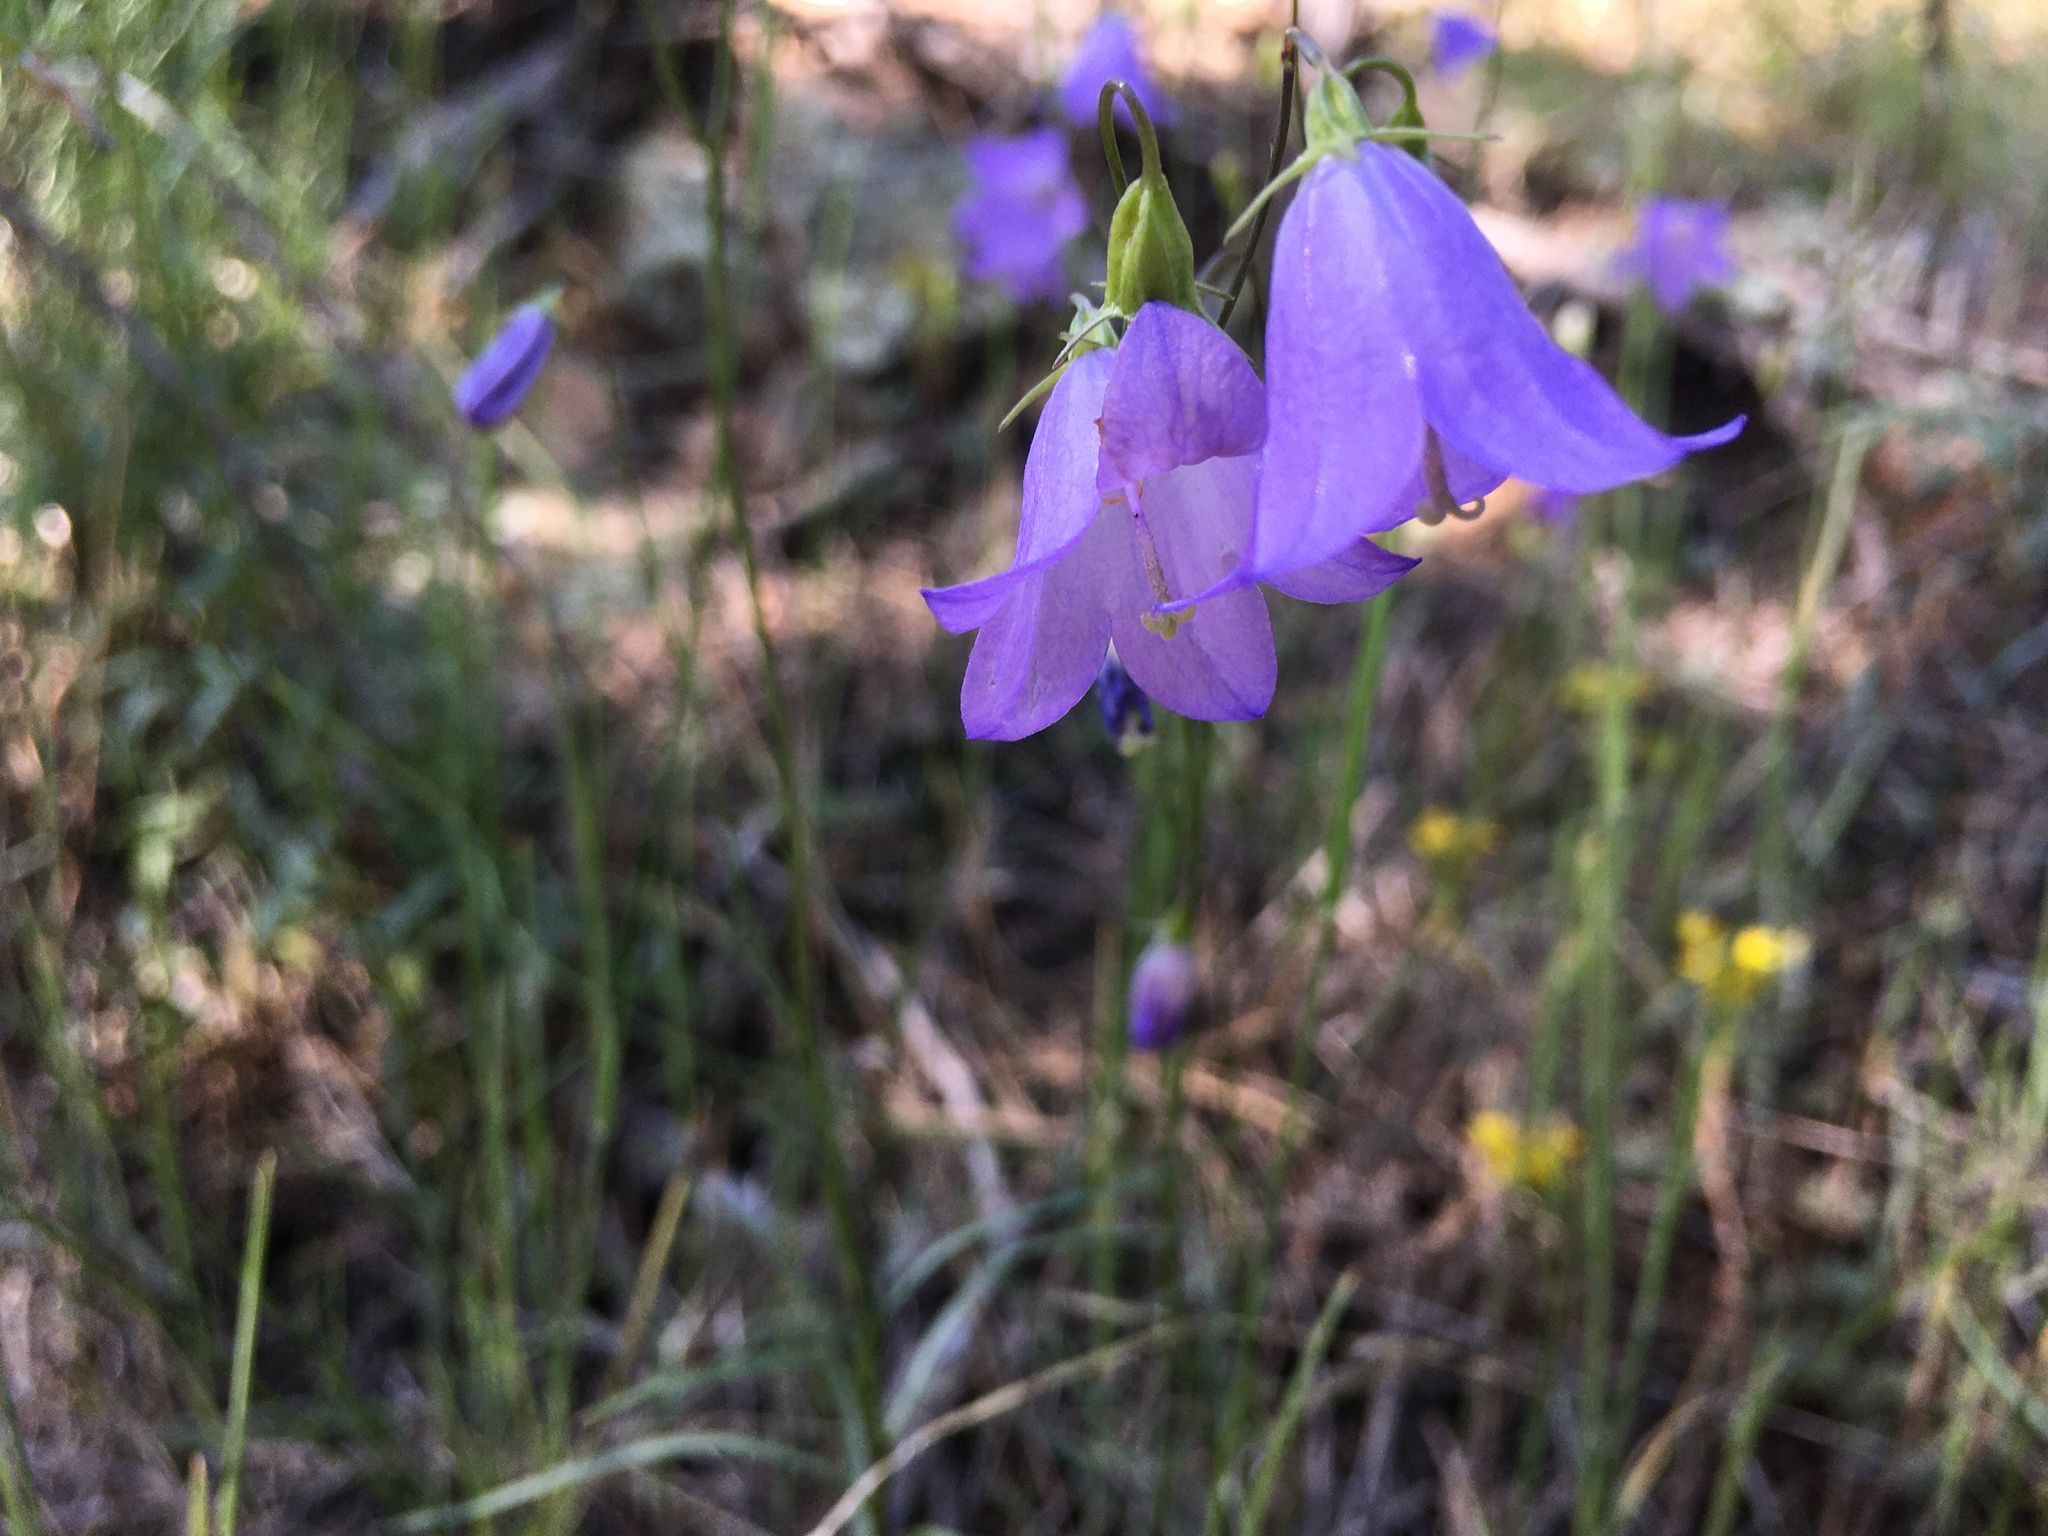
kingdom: Plantae
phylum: Tracheophyta
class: Magnoliopsida
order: Asterales
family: Campanulaceae
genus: Campanula
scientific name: Campanula petiolata
